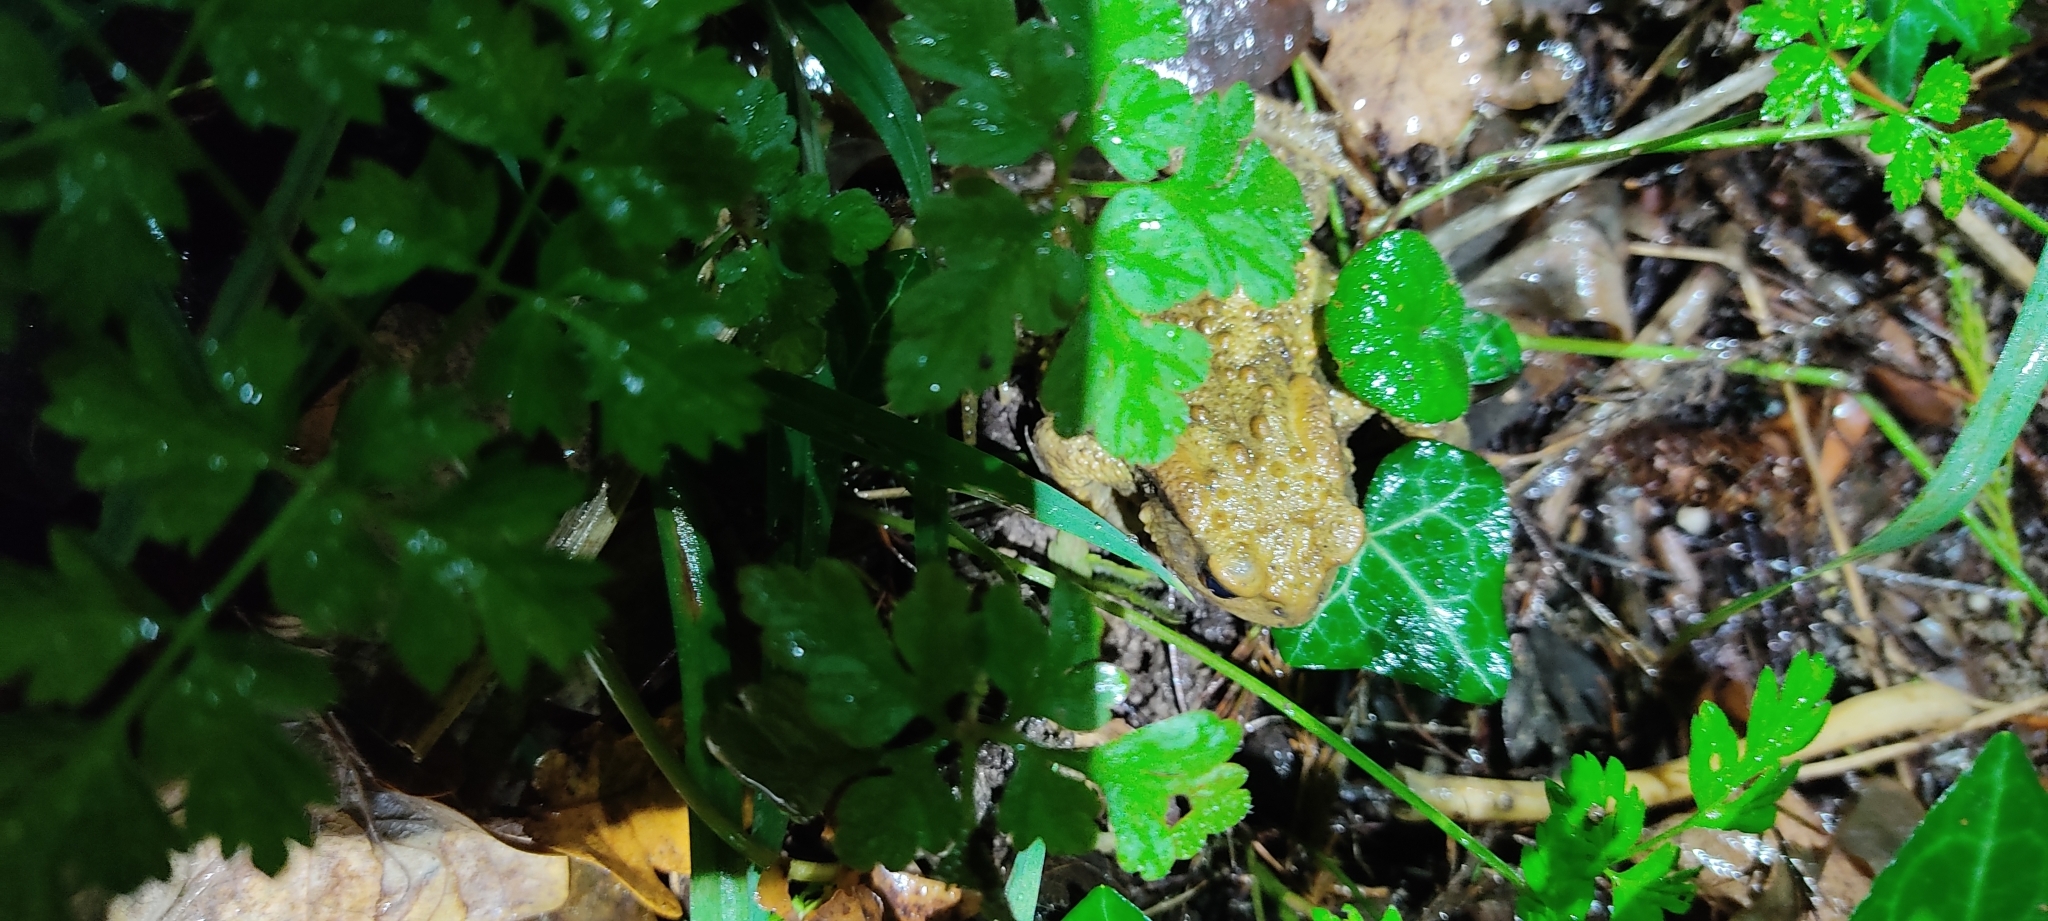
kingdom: Animalia
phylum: Chordata
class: Amphibia
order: Anura
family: Bufonidae
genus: Bufo
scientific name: Bufo spinosus
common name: Western common toad
